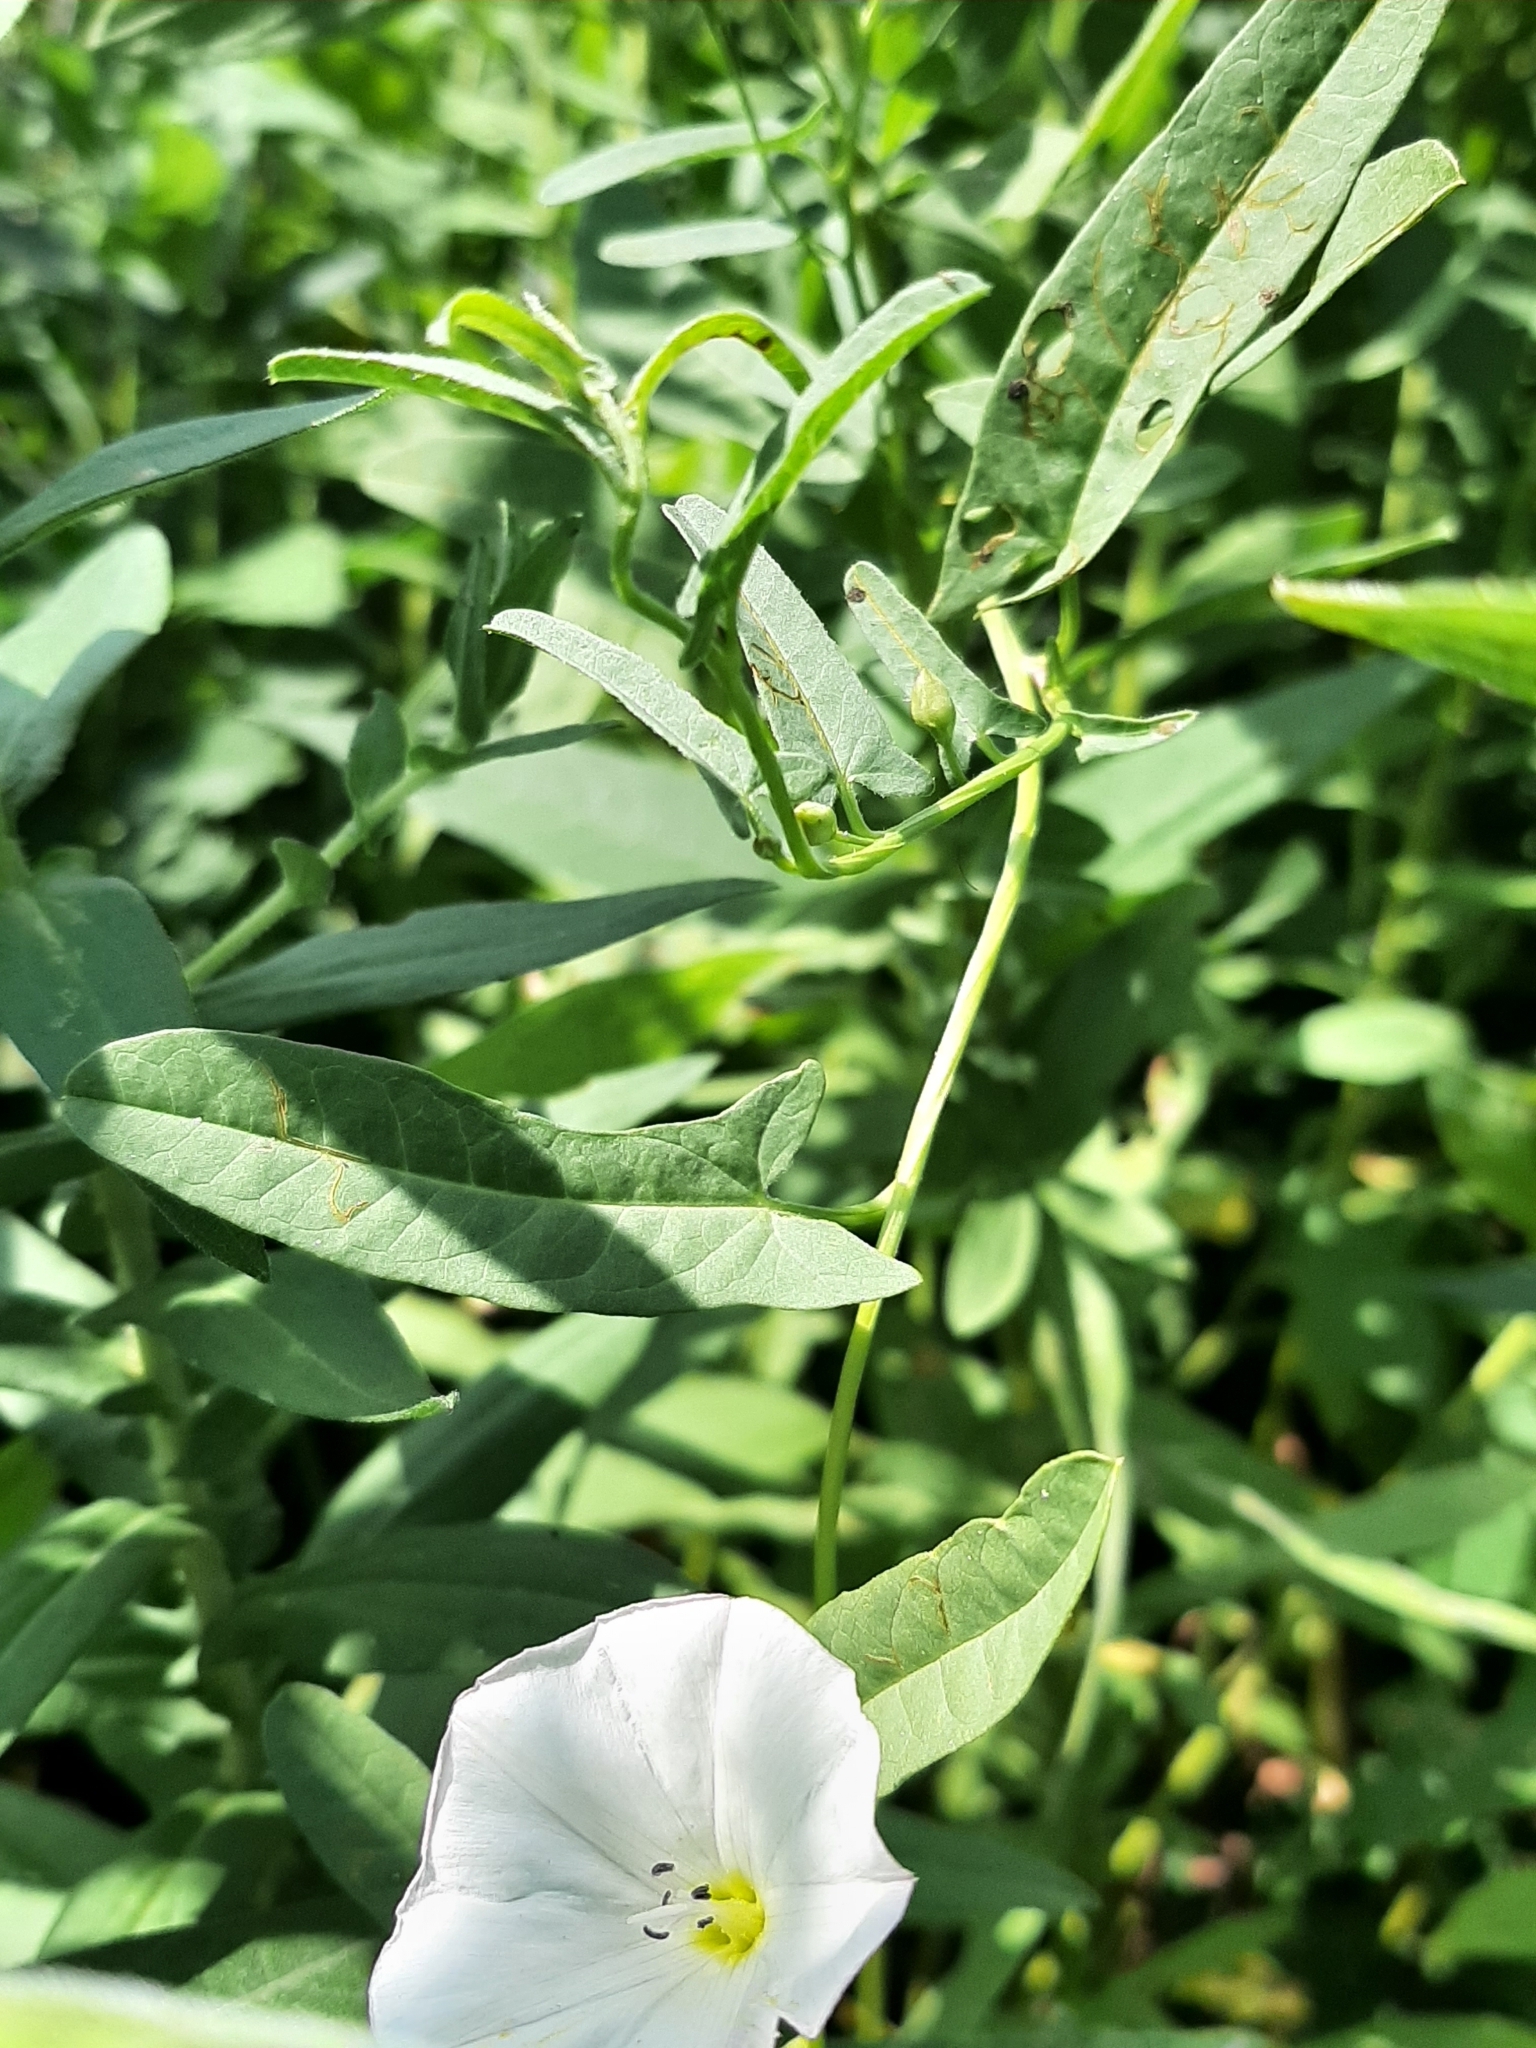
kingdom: Plantae
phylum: Tracheophyta
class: Magnoliopsida
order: Solanales
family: Convolvulaceae
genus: Convolvulus
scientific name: Convolvulus arvensis
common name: Field bindweed
